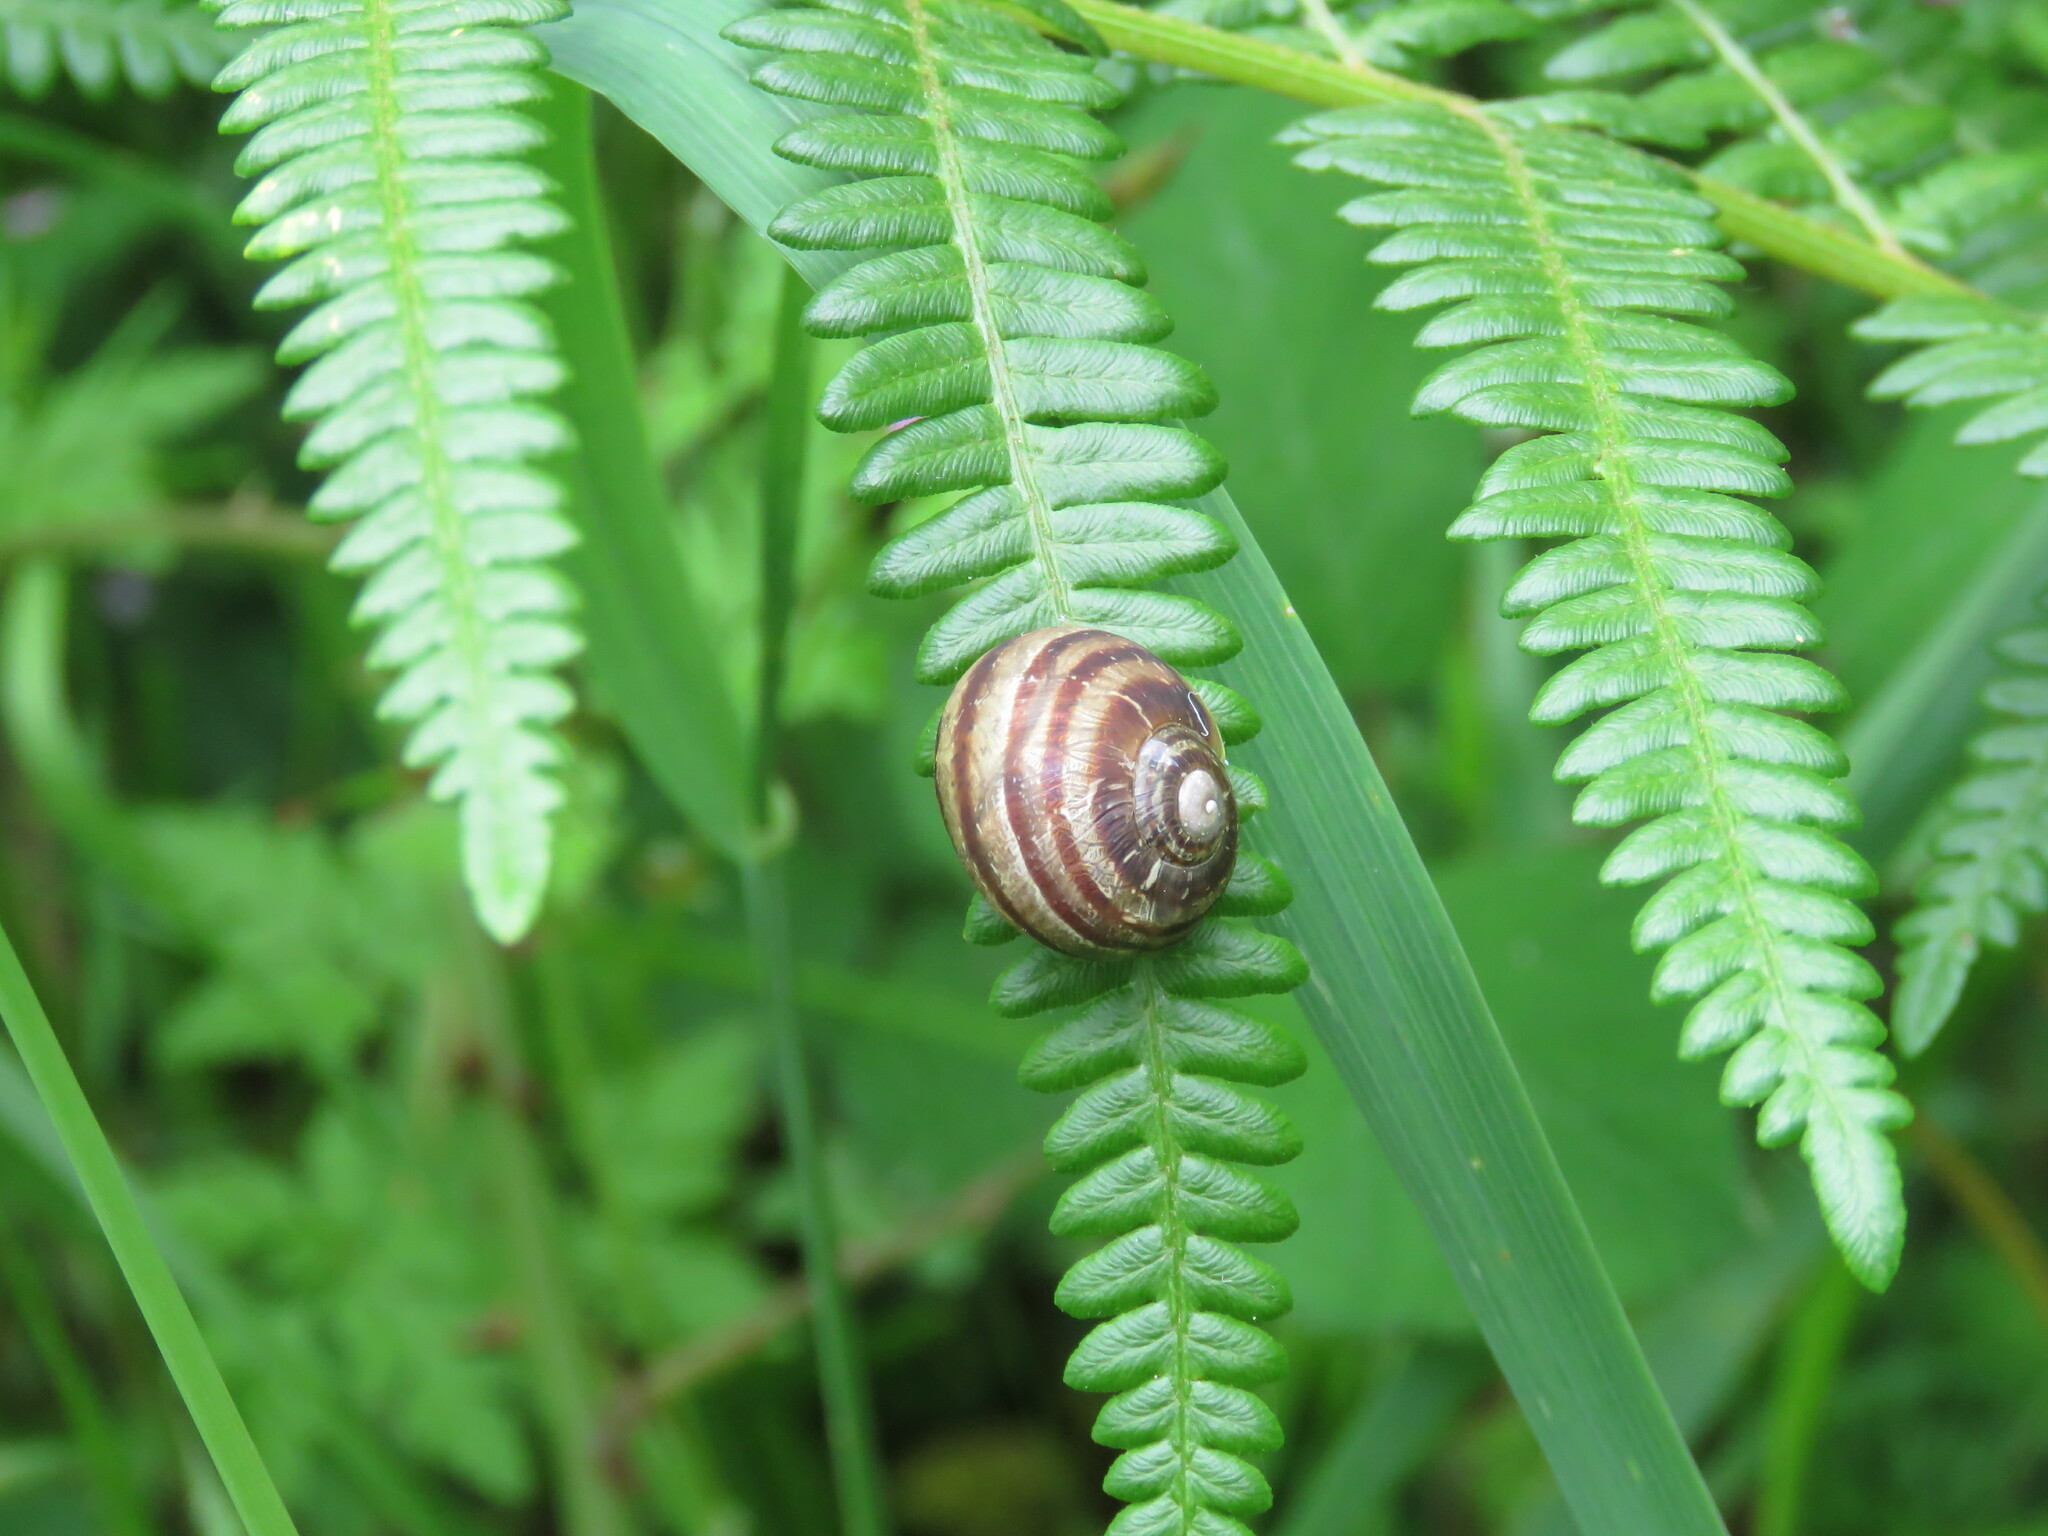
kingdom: Animalia
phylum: Mollusca
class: Gastropoda
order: Stylommatophora
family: Helicidae
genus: Cornu
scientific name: Cornu aspersum
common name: Brown garden snail
